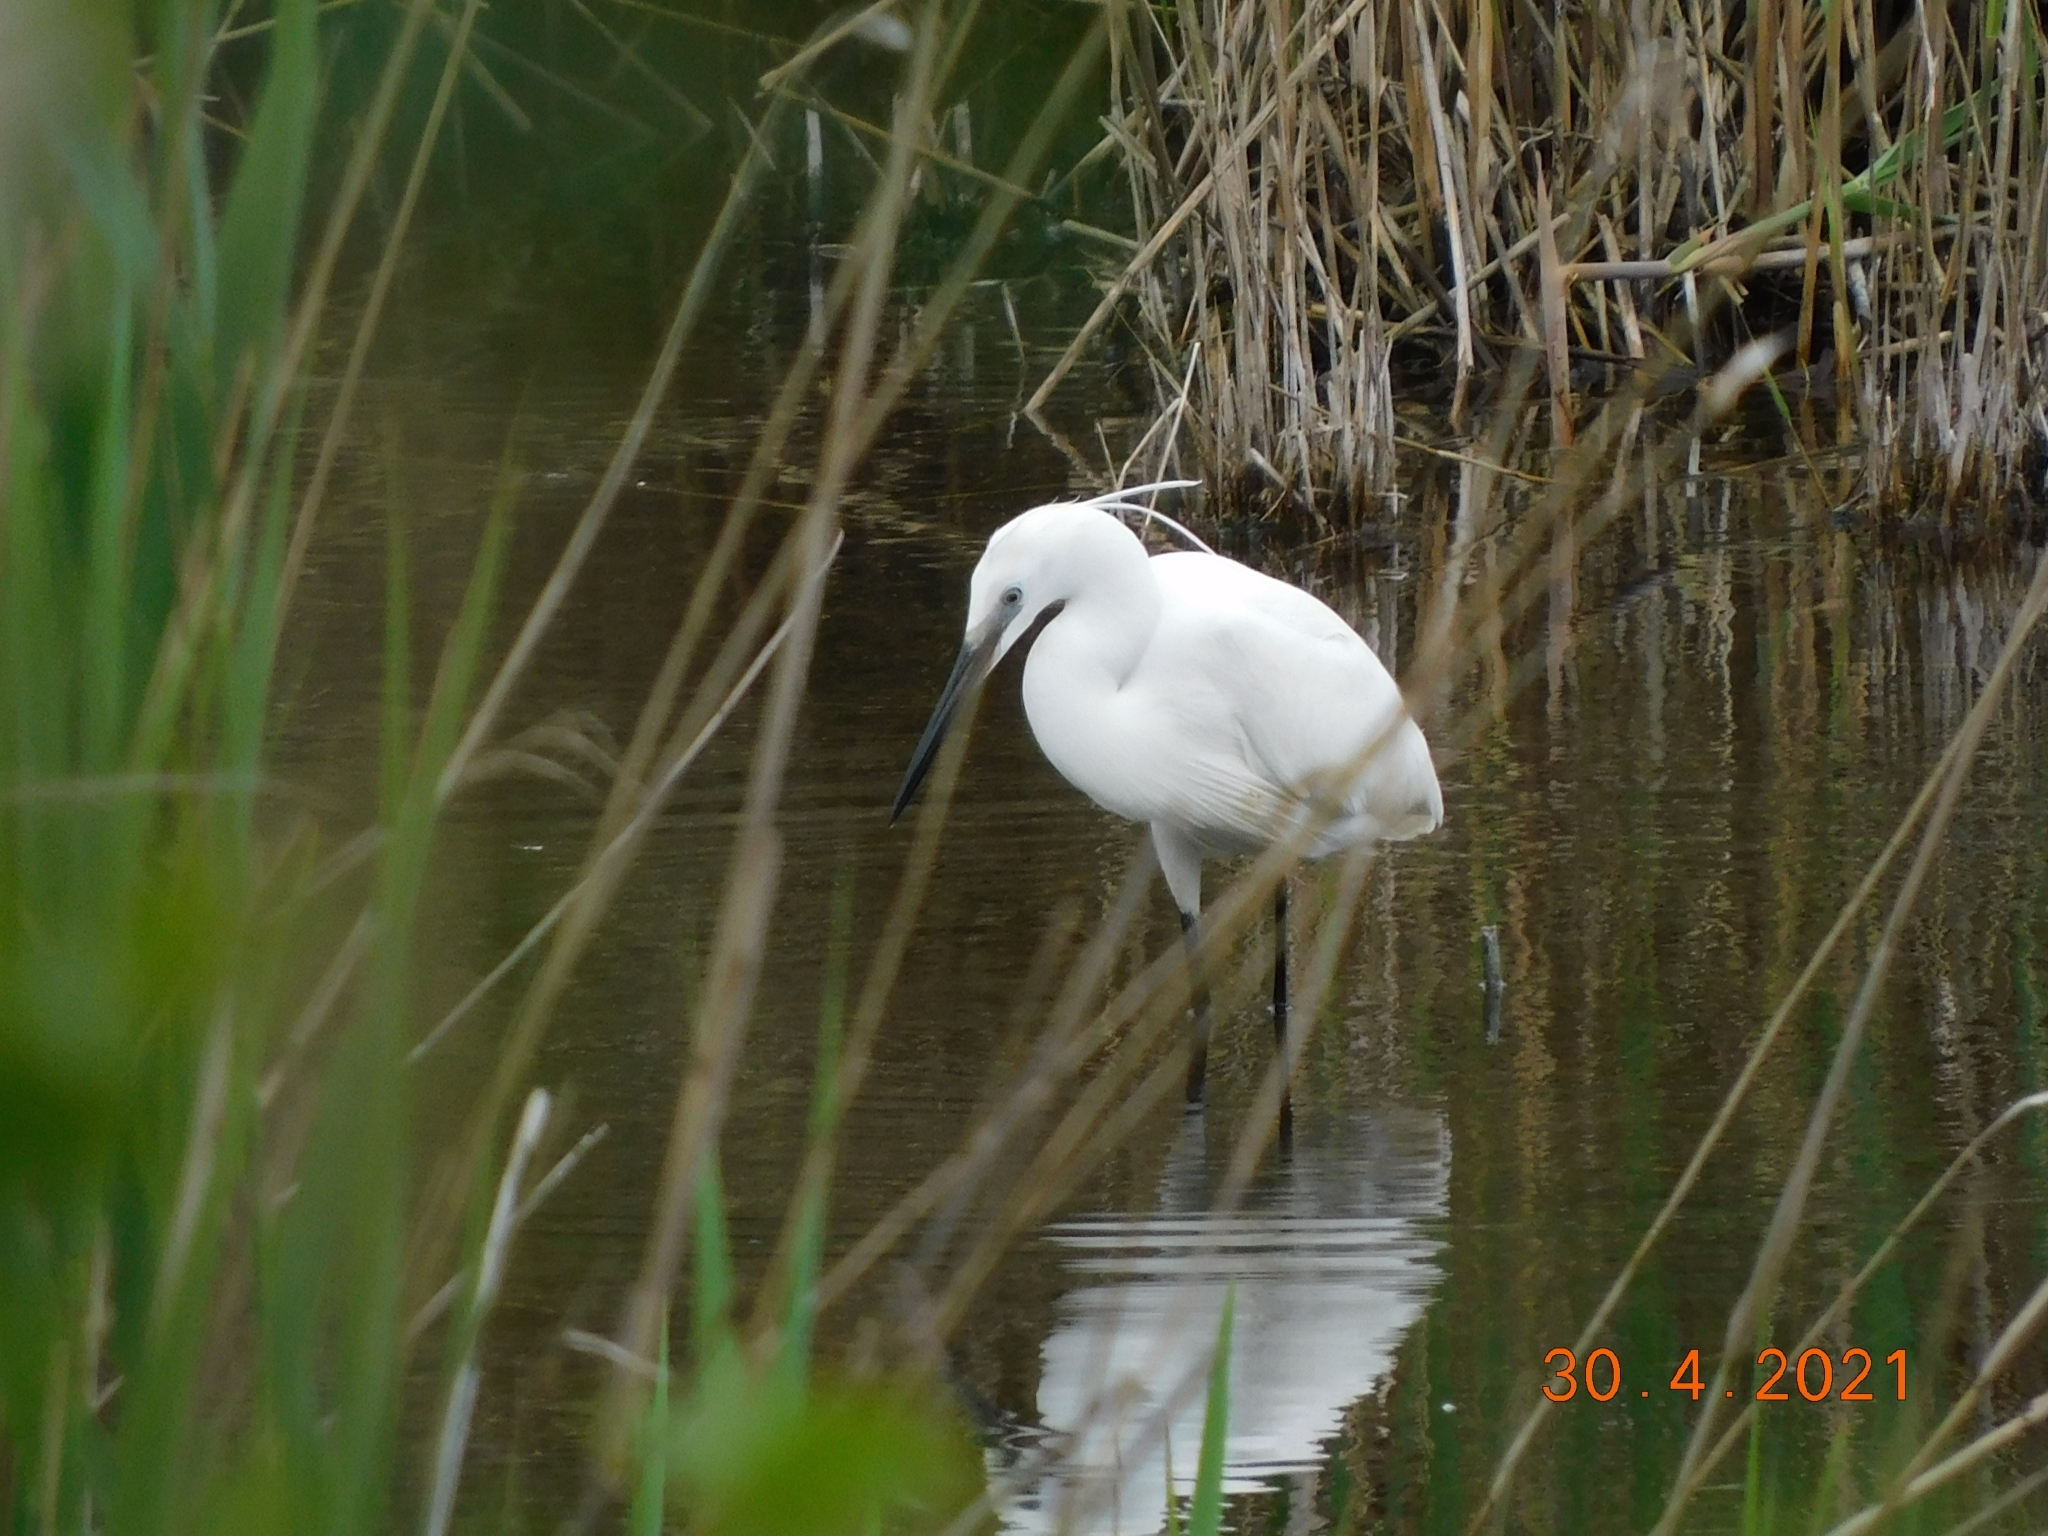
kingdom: Animalia
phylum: Chordata
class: Aves
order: Pelecaniformes
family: Ardeidae
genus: Egretta
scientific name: Egretta garzetta
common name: Little egret
